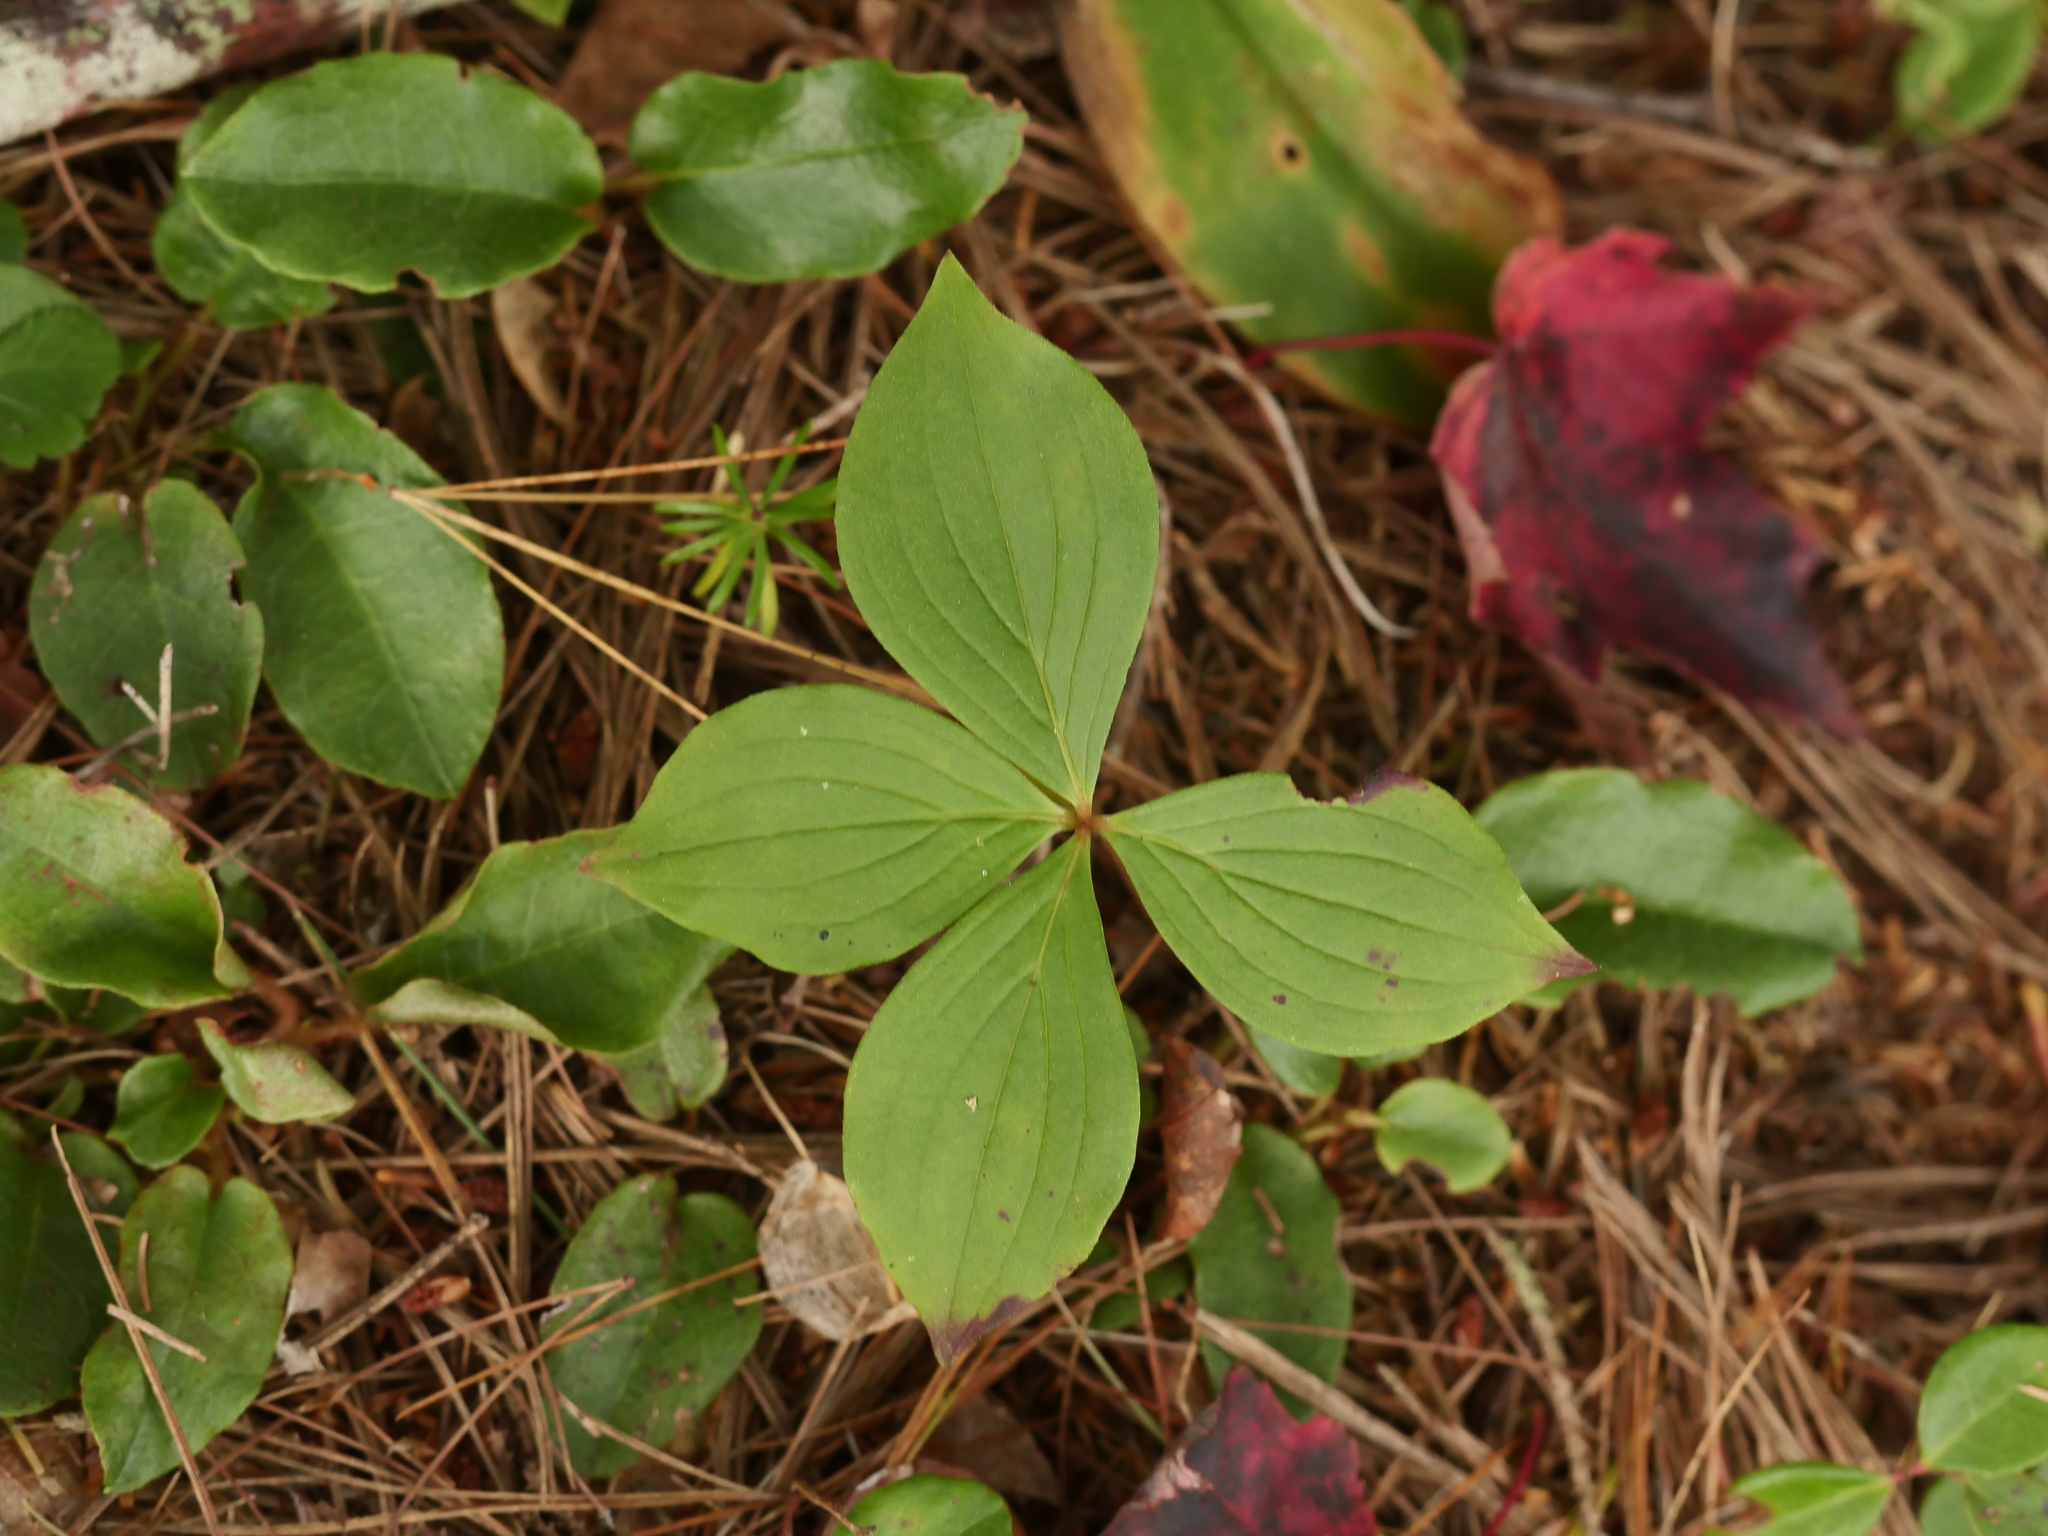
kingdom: Plantae
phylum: Tracheophyta
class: Magnoliopsida
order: Cornales
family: Cornaceae
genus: Cornus
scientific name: Cornus canadensis
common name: Creeping dogwood
